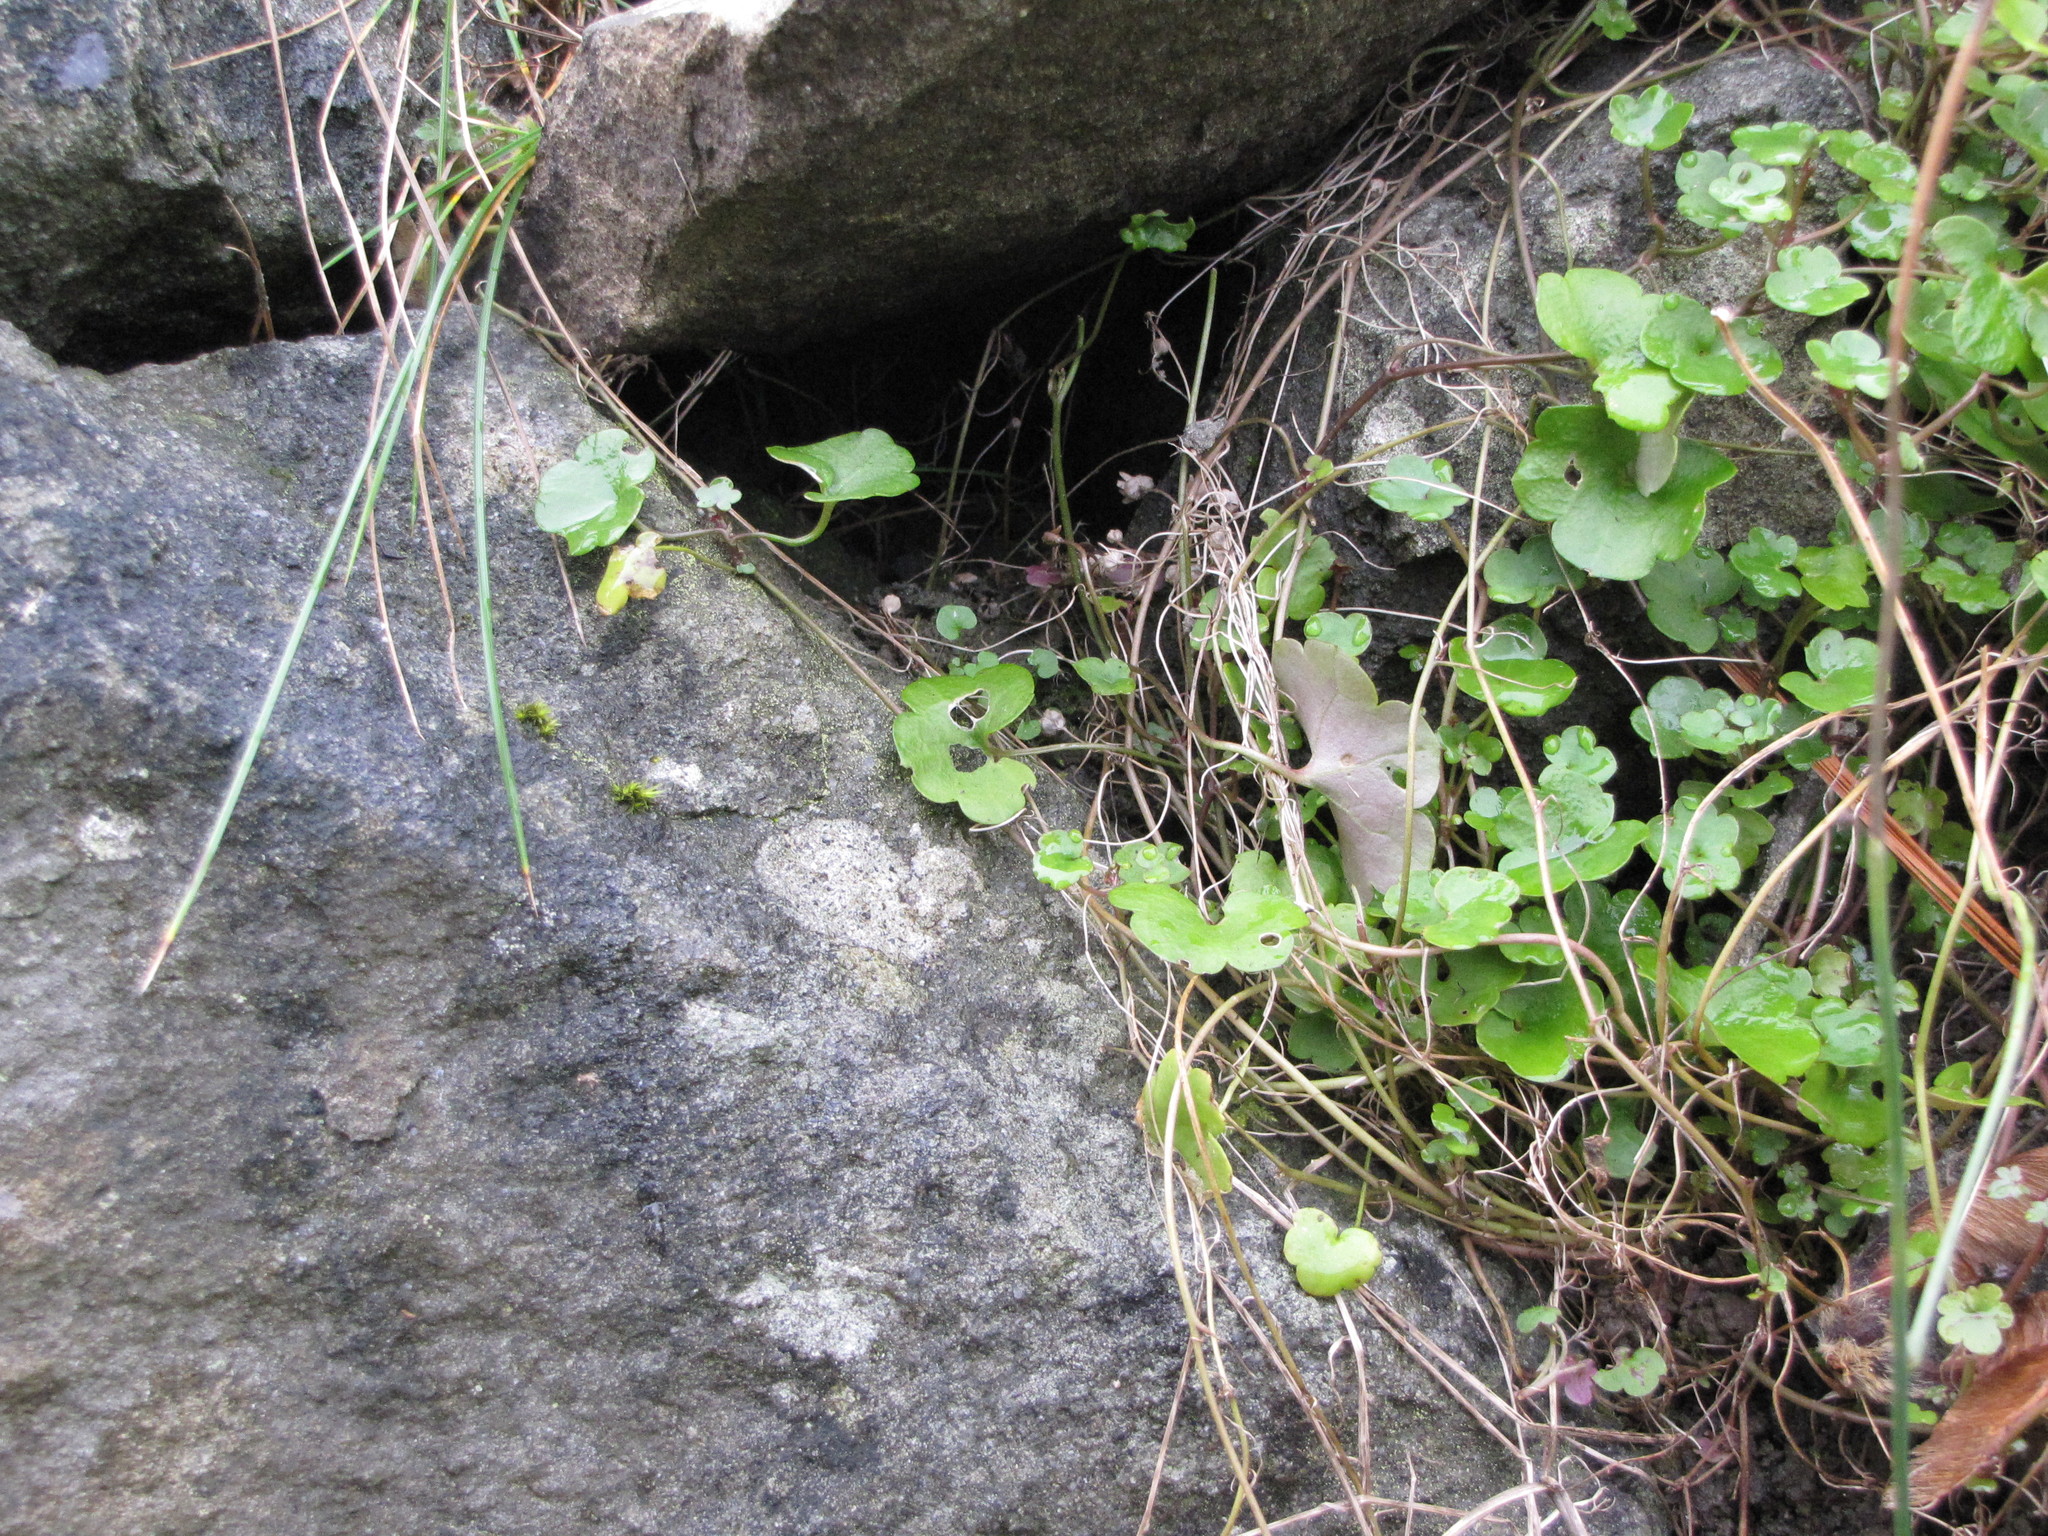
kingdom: Plantae
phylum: Tracheophyta
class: Magnoliopsida
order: Lamiales
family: Plantaginaceae
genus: Cymbalaria
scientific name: Cymbalaria muralis
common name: Ivy-leaved toadflax
